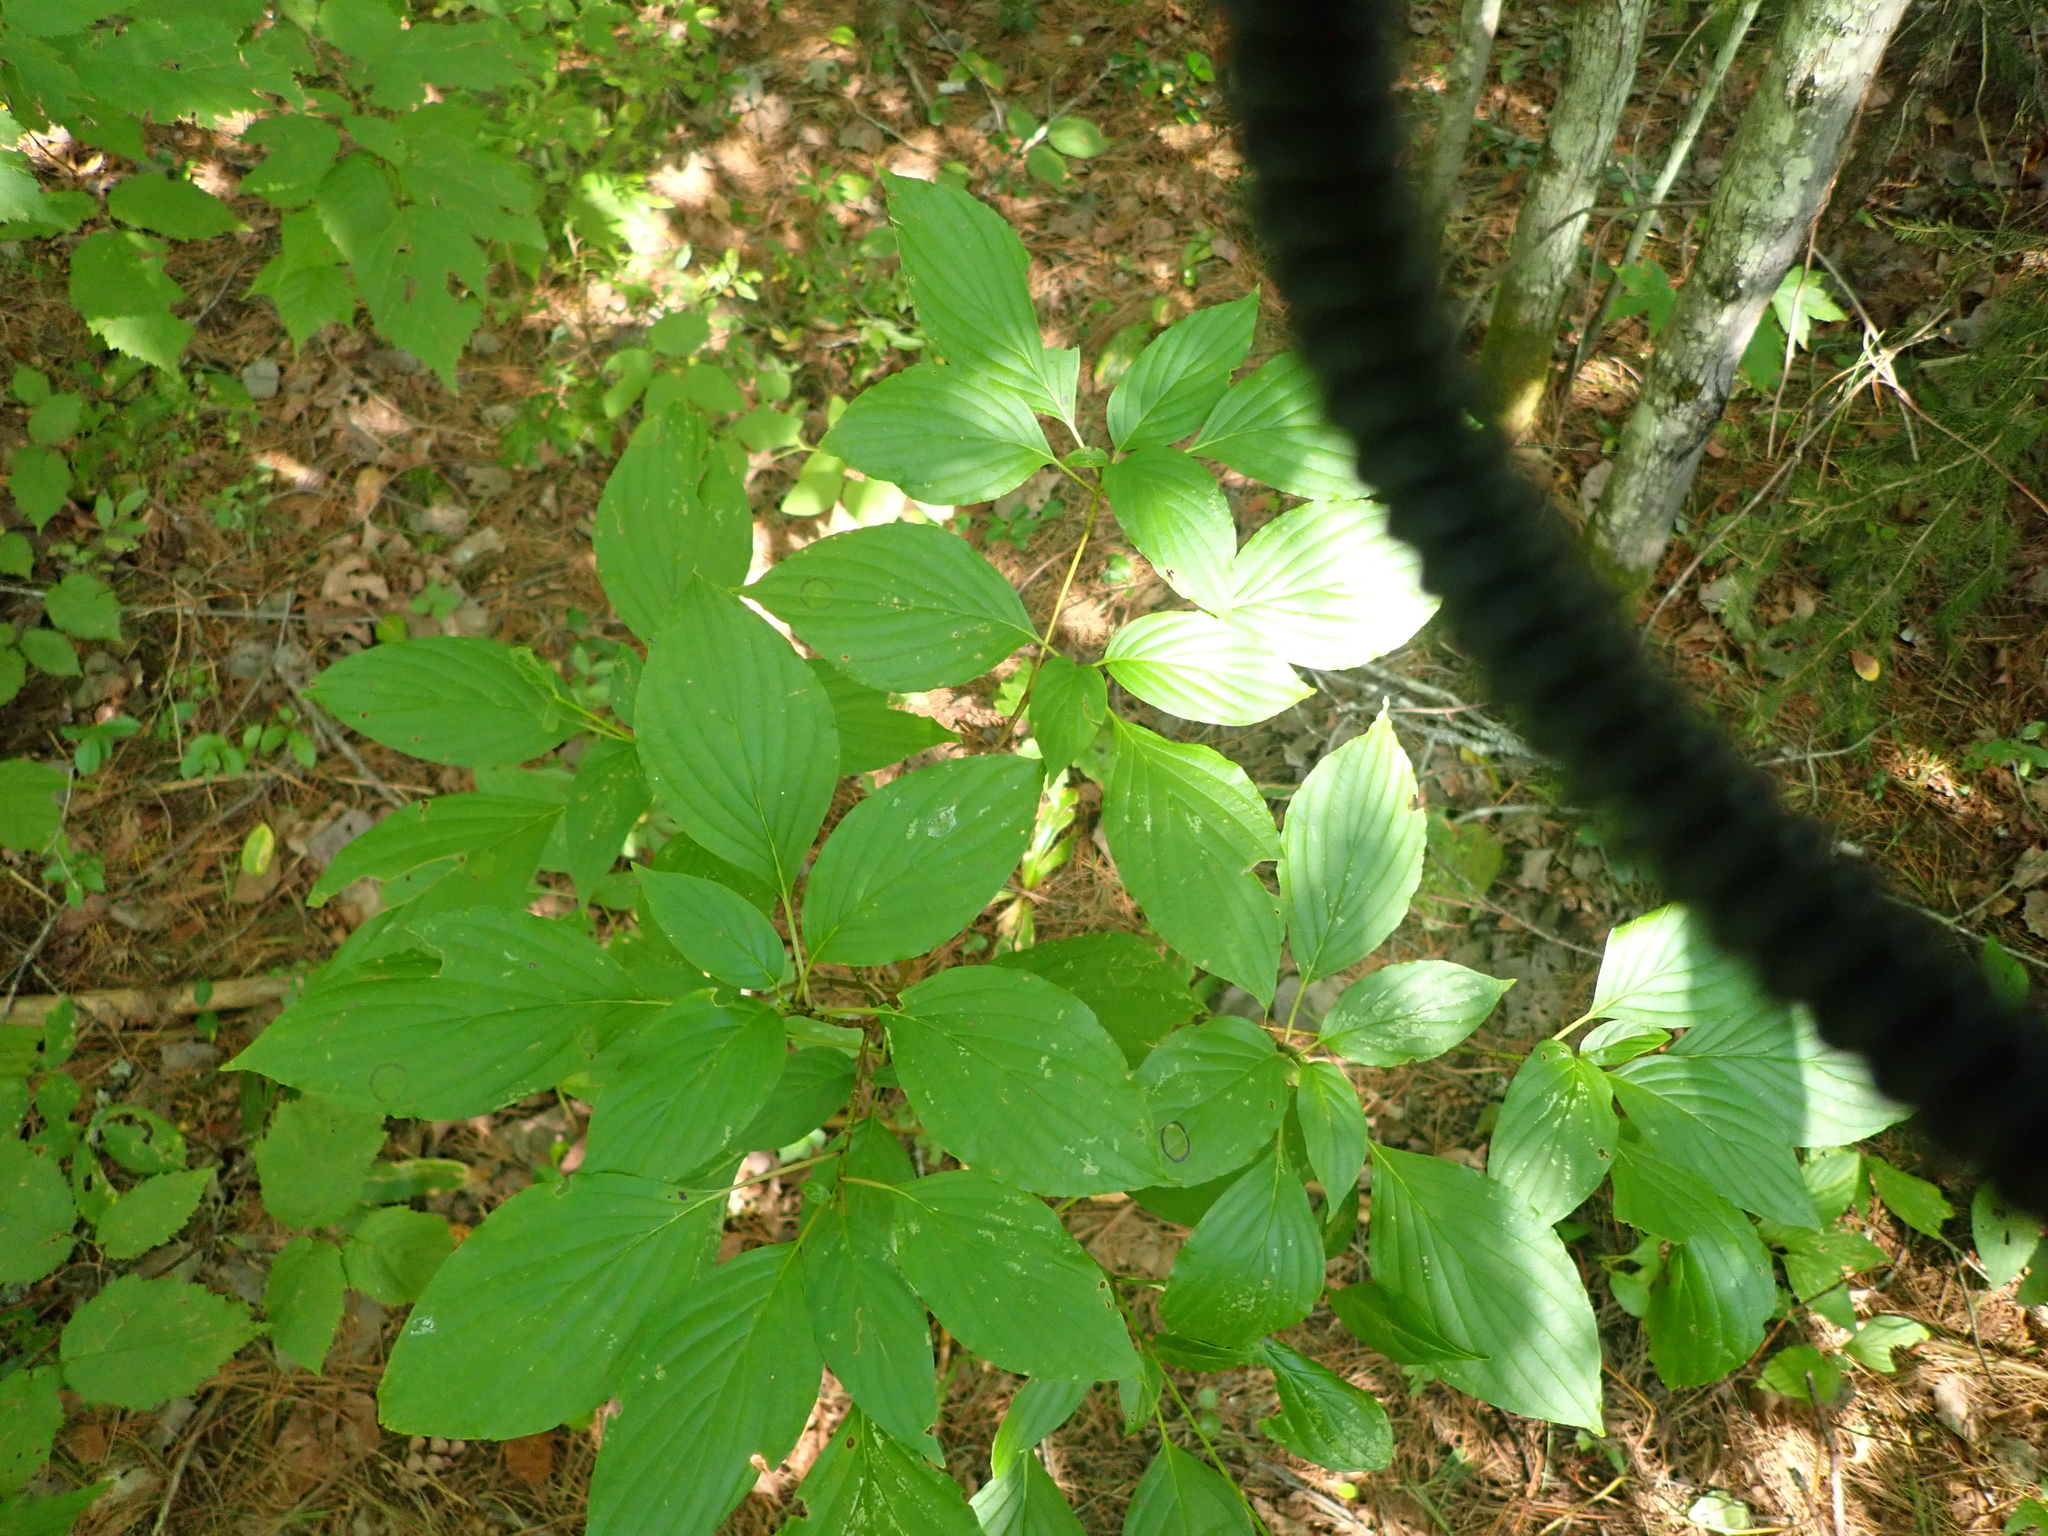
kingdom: Plantae
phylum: Tracheophyta
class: Magnoliopsida
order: Cornales
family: Cornaceae
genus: Cornus
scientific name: Cornus alternifolia
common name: Pagoda dogwood
